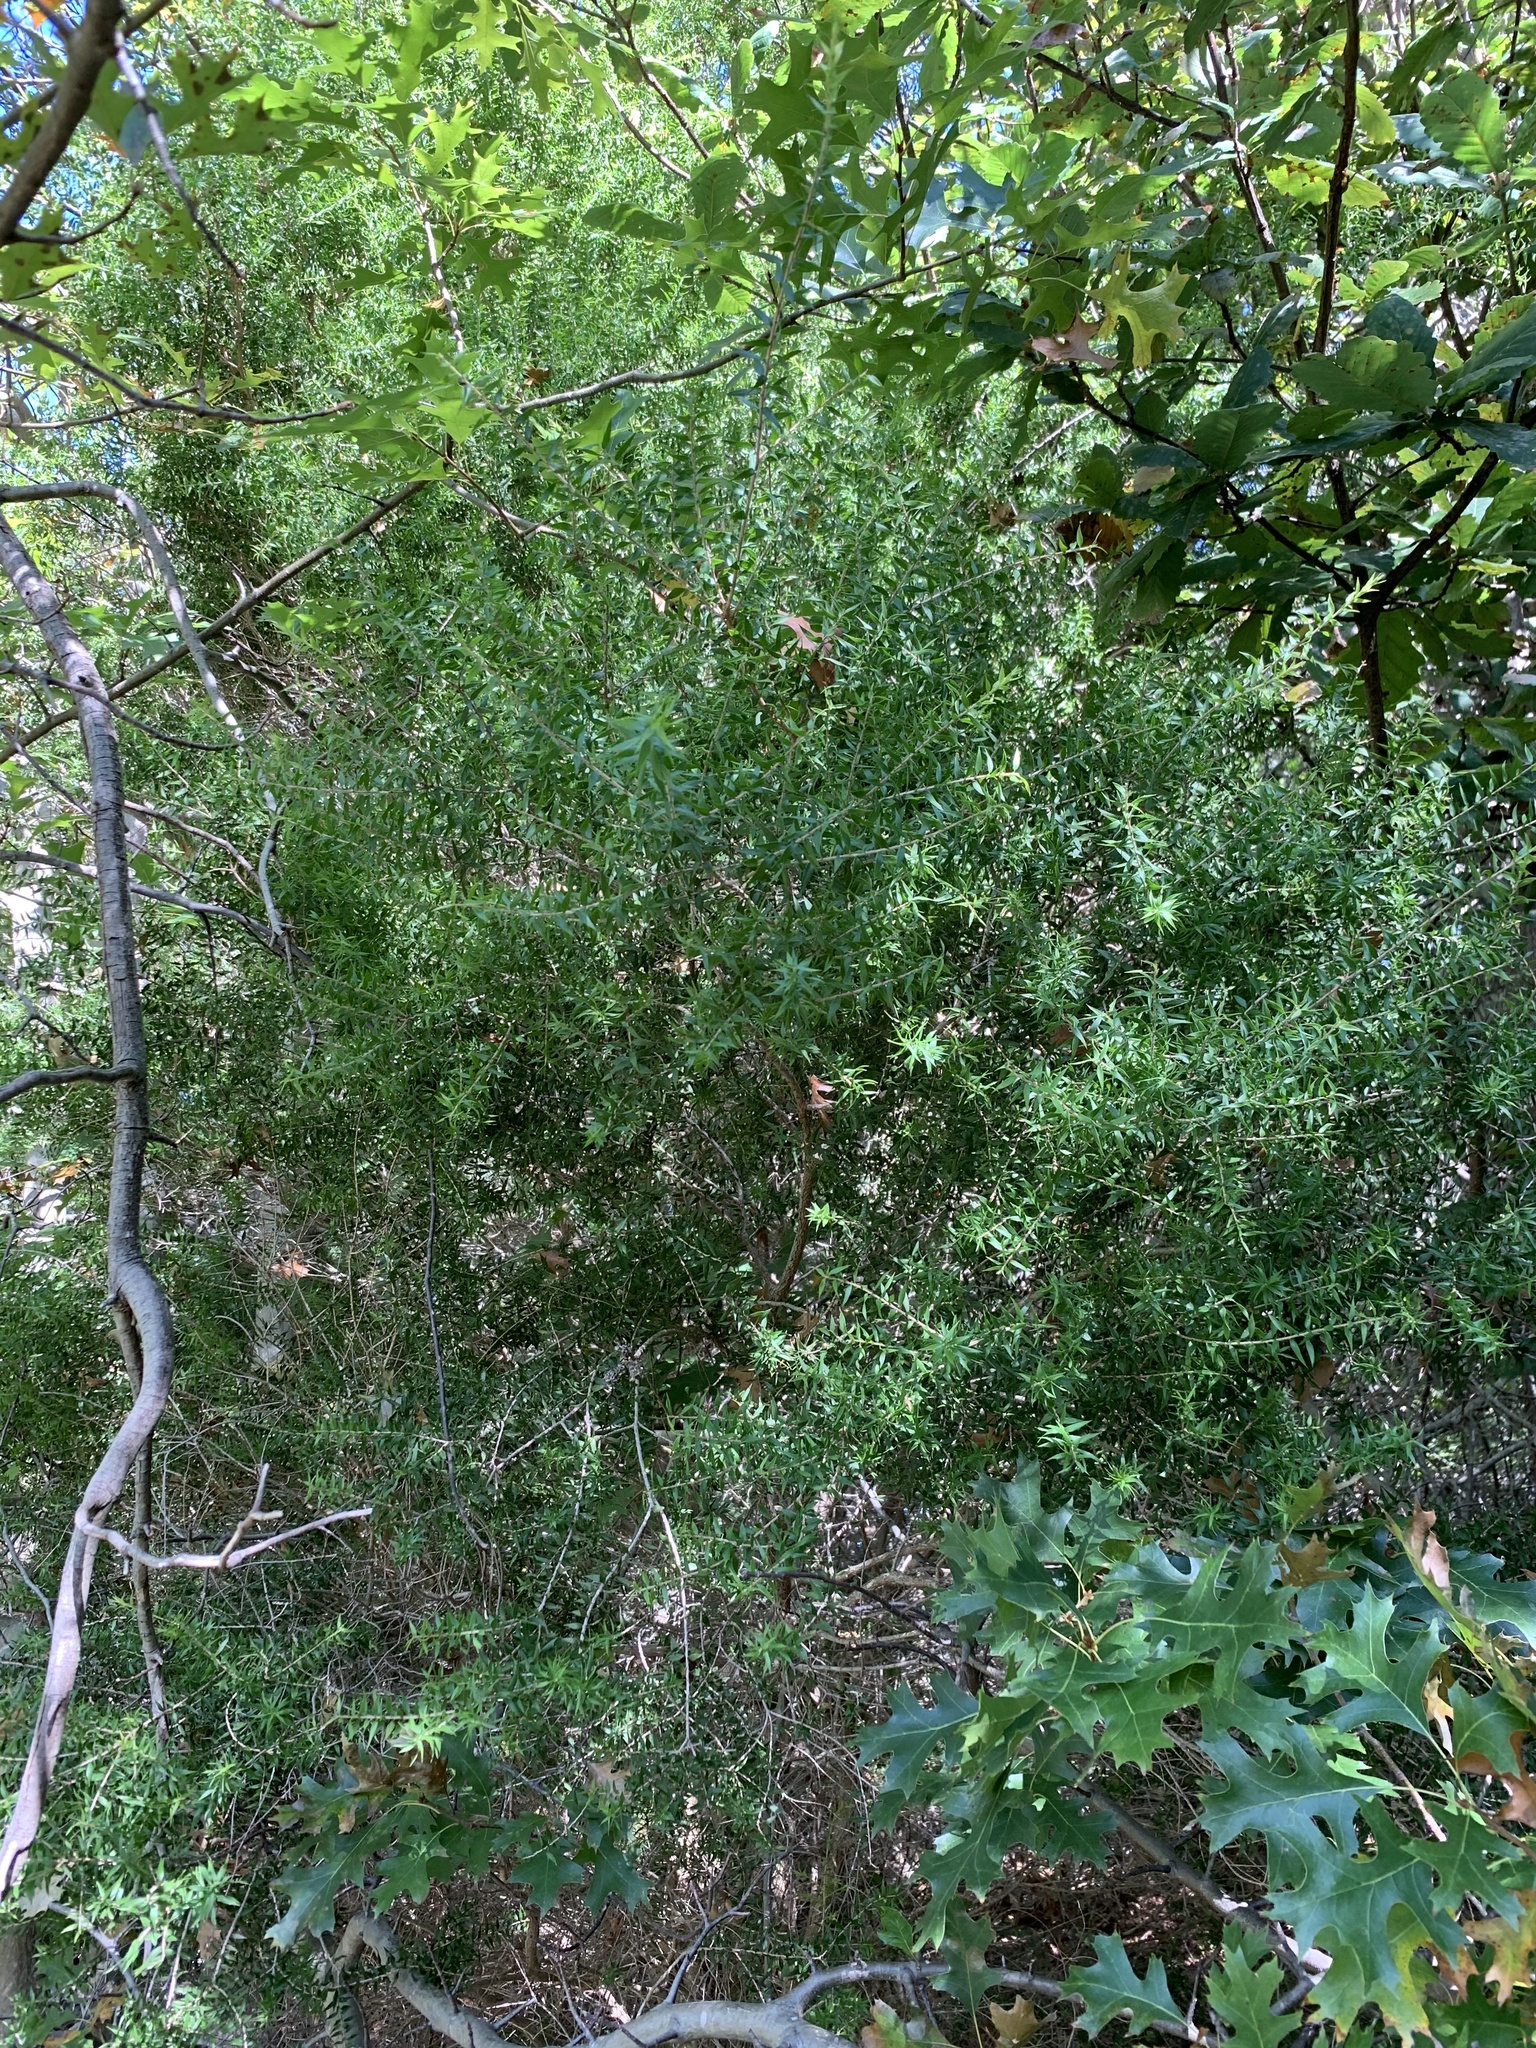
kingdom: Plantae
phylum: Tracheophyta
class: Magnoliopsida
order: Myrtales
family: Myrtaceae
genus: Melaleuca
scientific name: Melaleuca styphelioides
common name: Prickly paperbark
